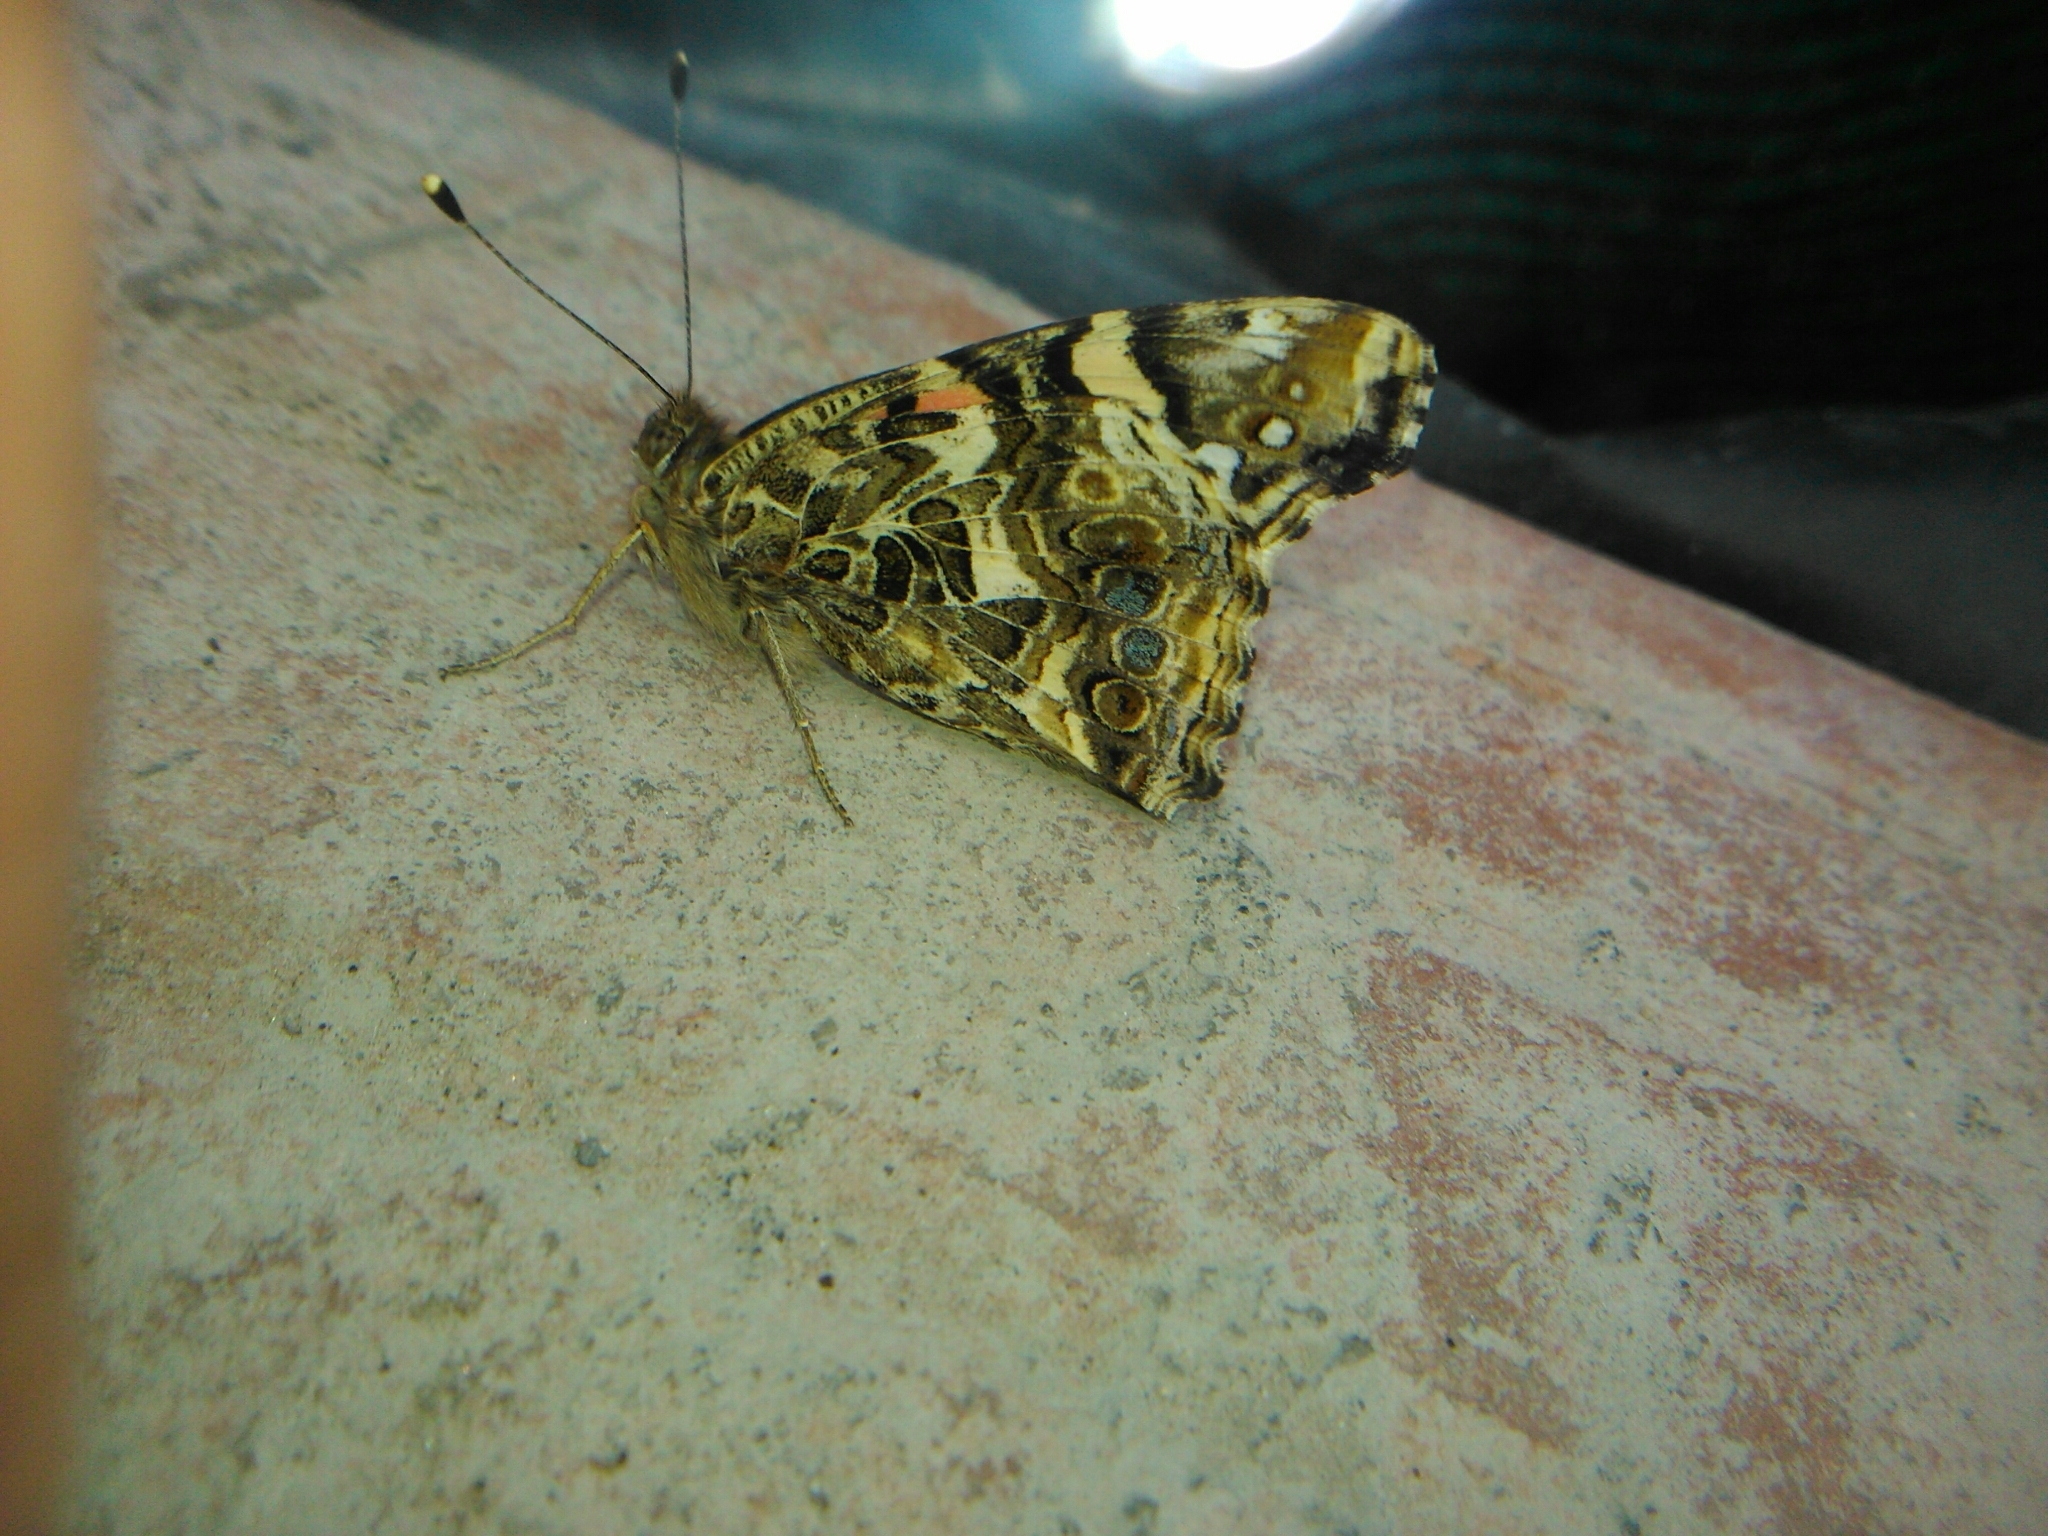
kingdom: Animalia
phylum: Arthropoda
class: Insecta
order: Lepidoptera
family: Nymphalidae
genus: Vanessa
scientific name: Vanessa carye
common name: Subtropical lady
